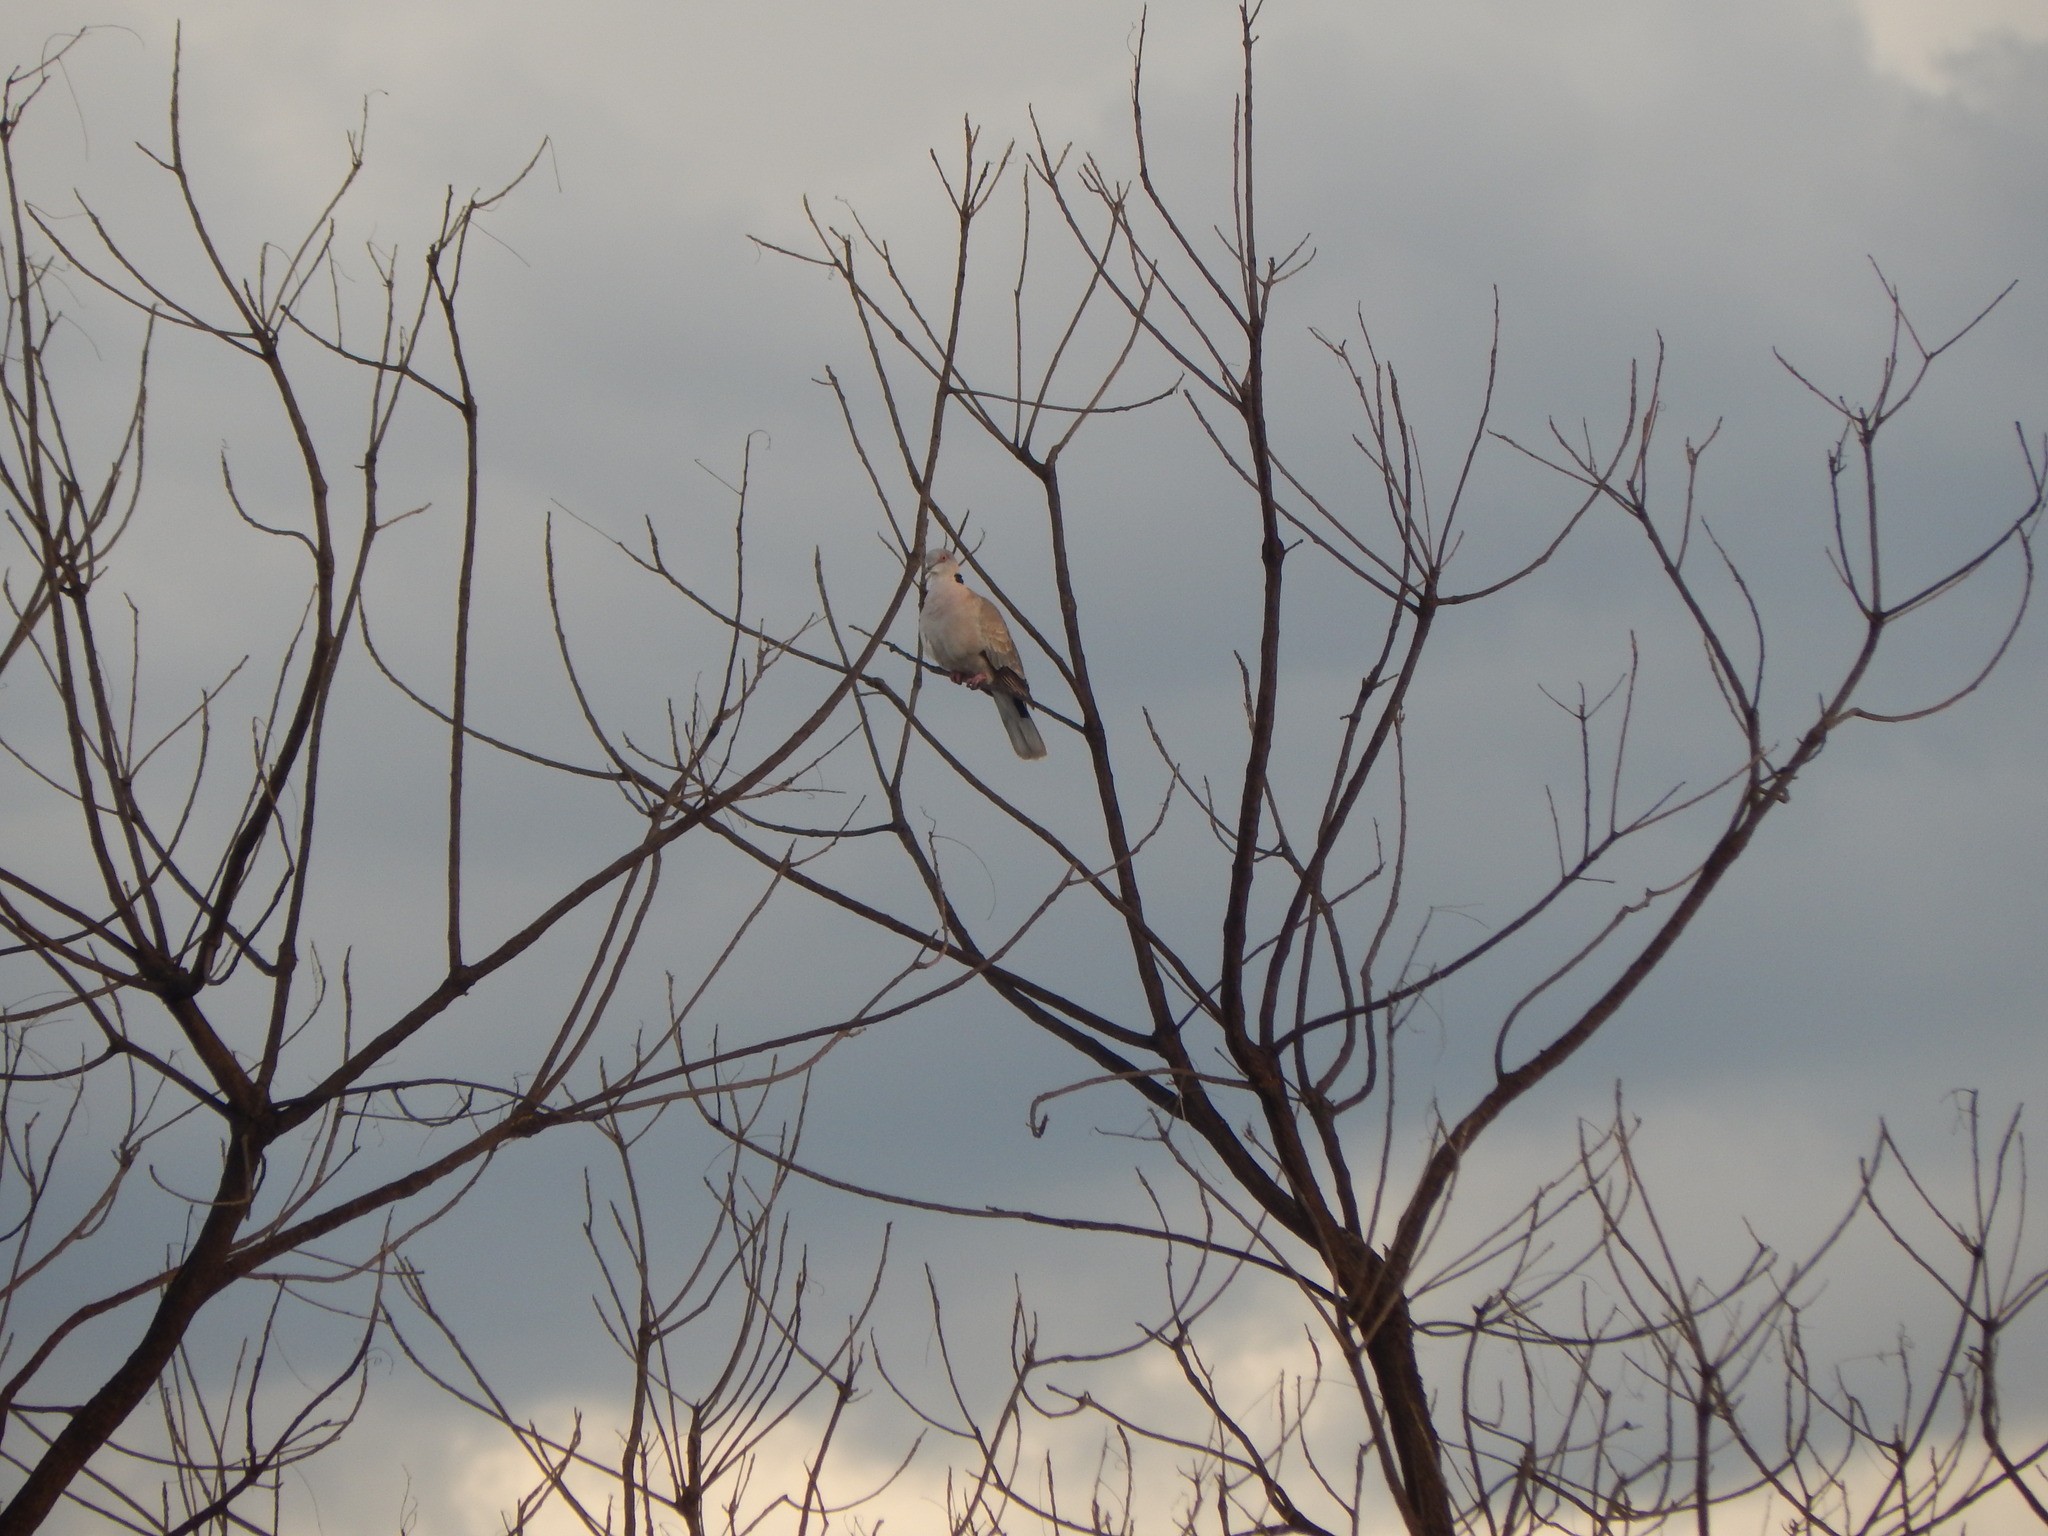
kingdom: Animalia
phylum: Chordata
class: Aves
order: Columbiformes
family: Columbidae
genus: Streptopelia
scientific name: Streptopelia decipiens
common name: Mourning collared dove
